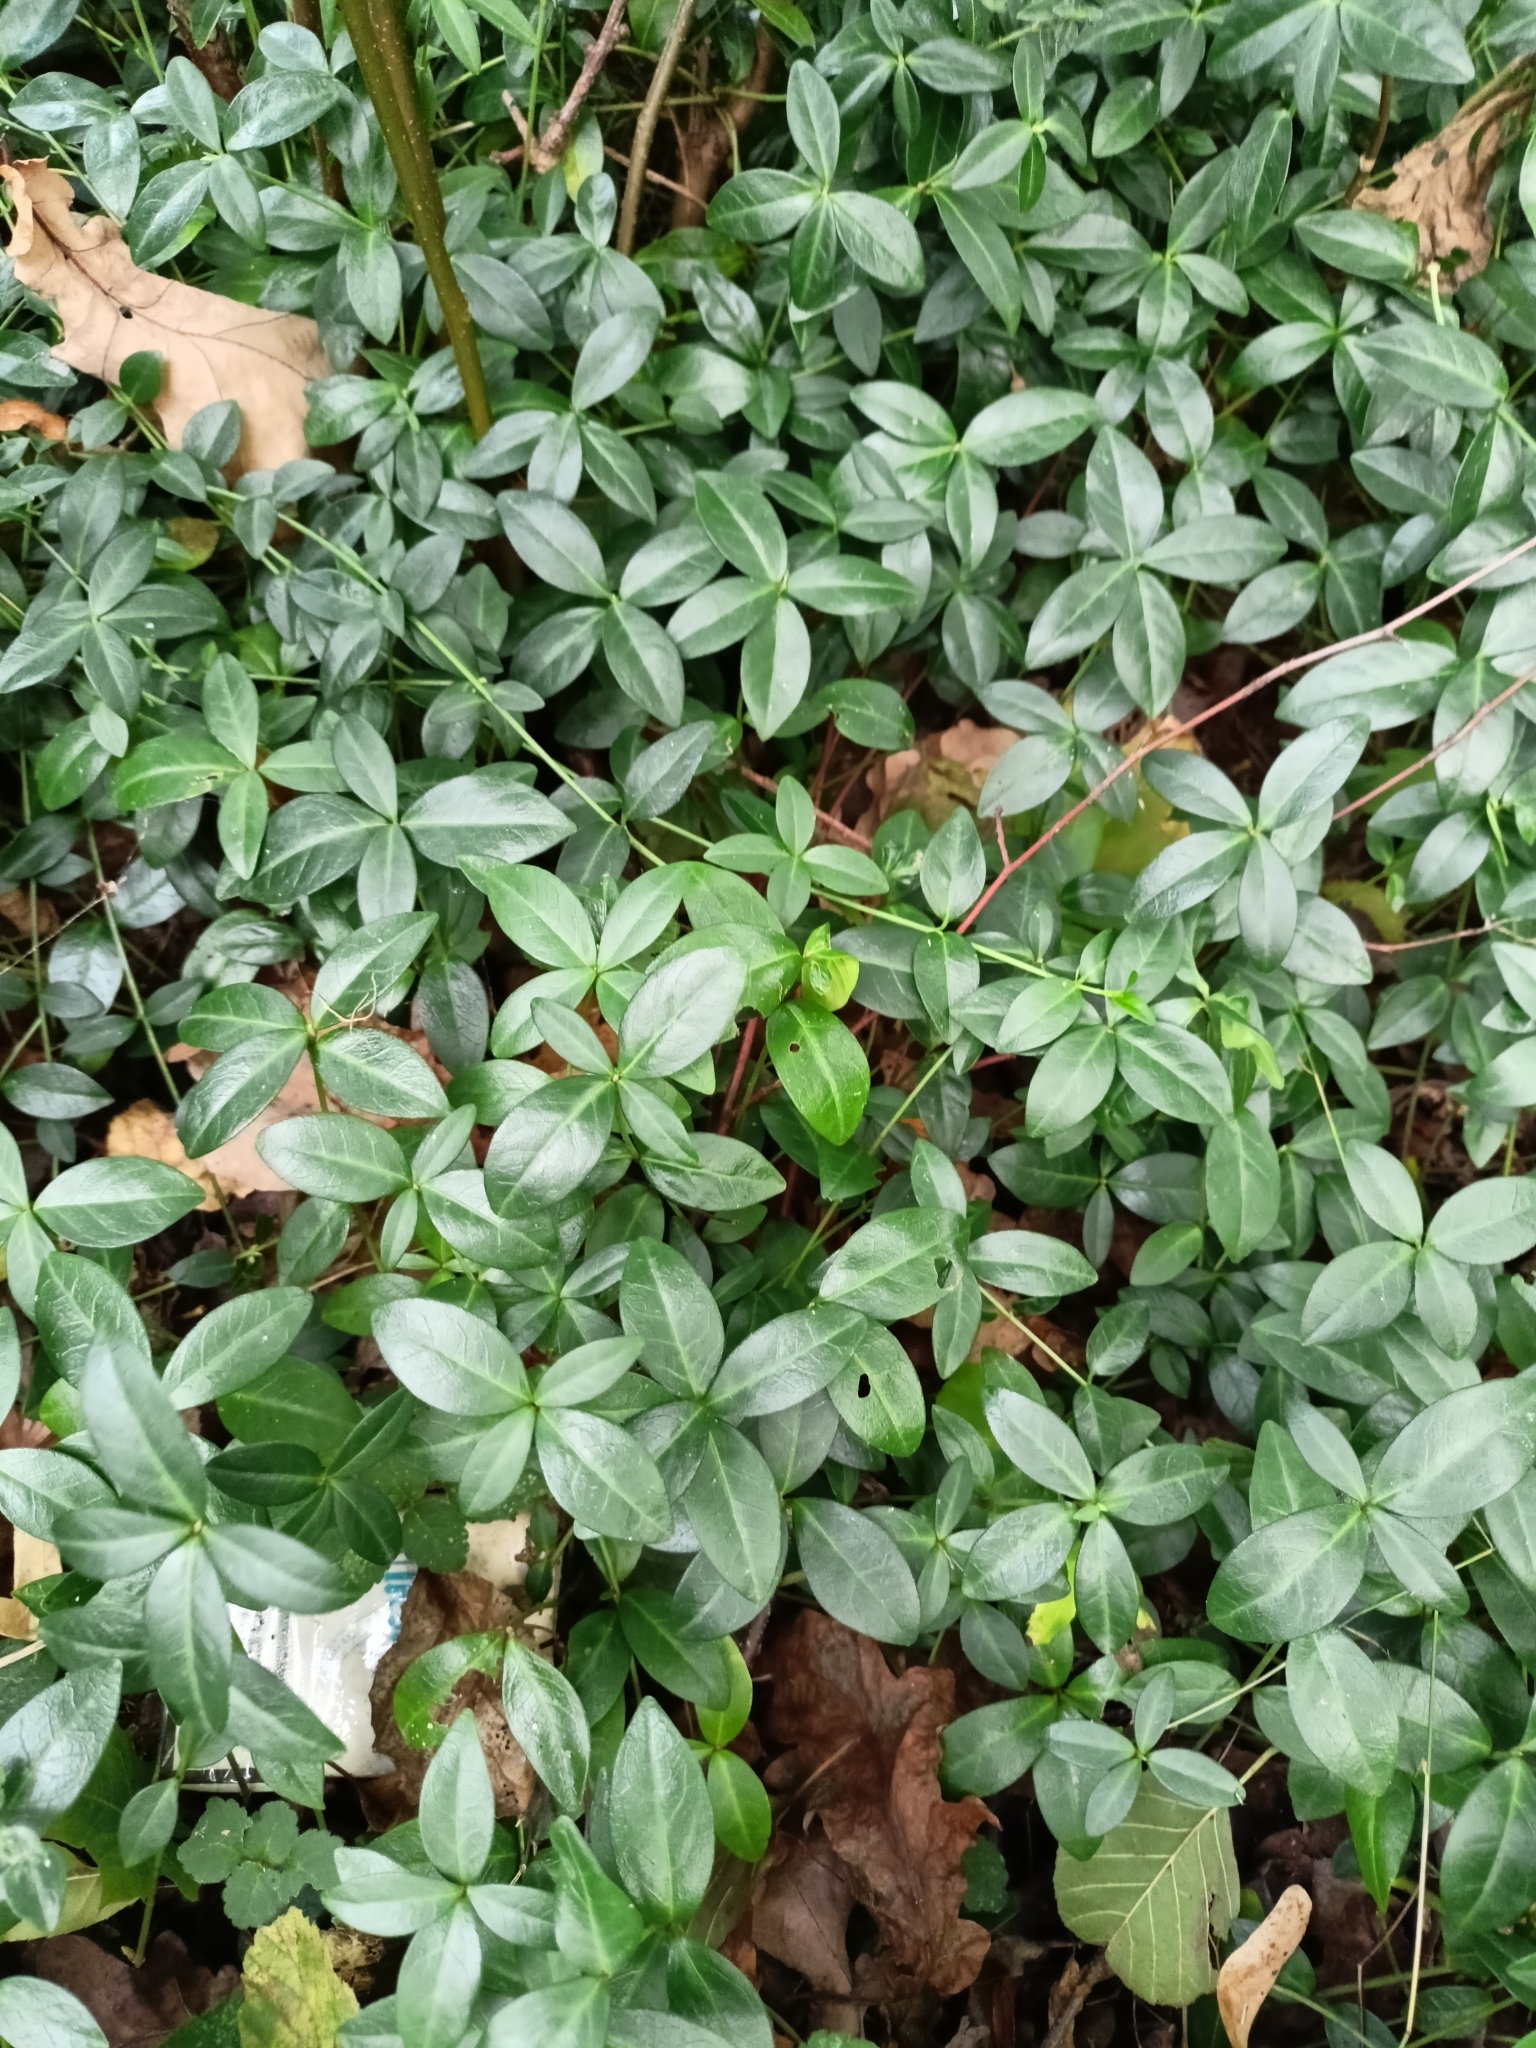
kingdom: Plantae
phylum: Tracheophyta
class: Magnoliopsida
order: Gentianales
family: Apocynaceae
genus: Vinca
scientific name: Vinca minor
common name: Lesser periwinkle
